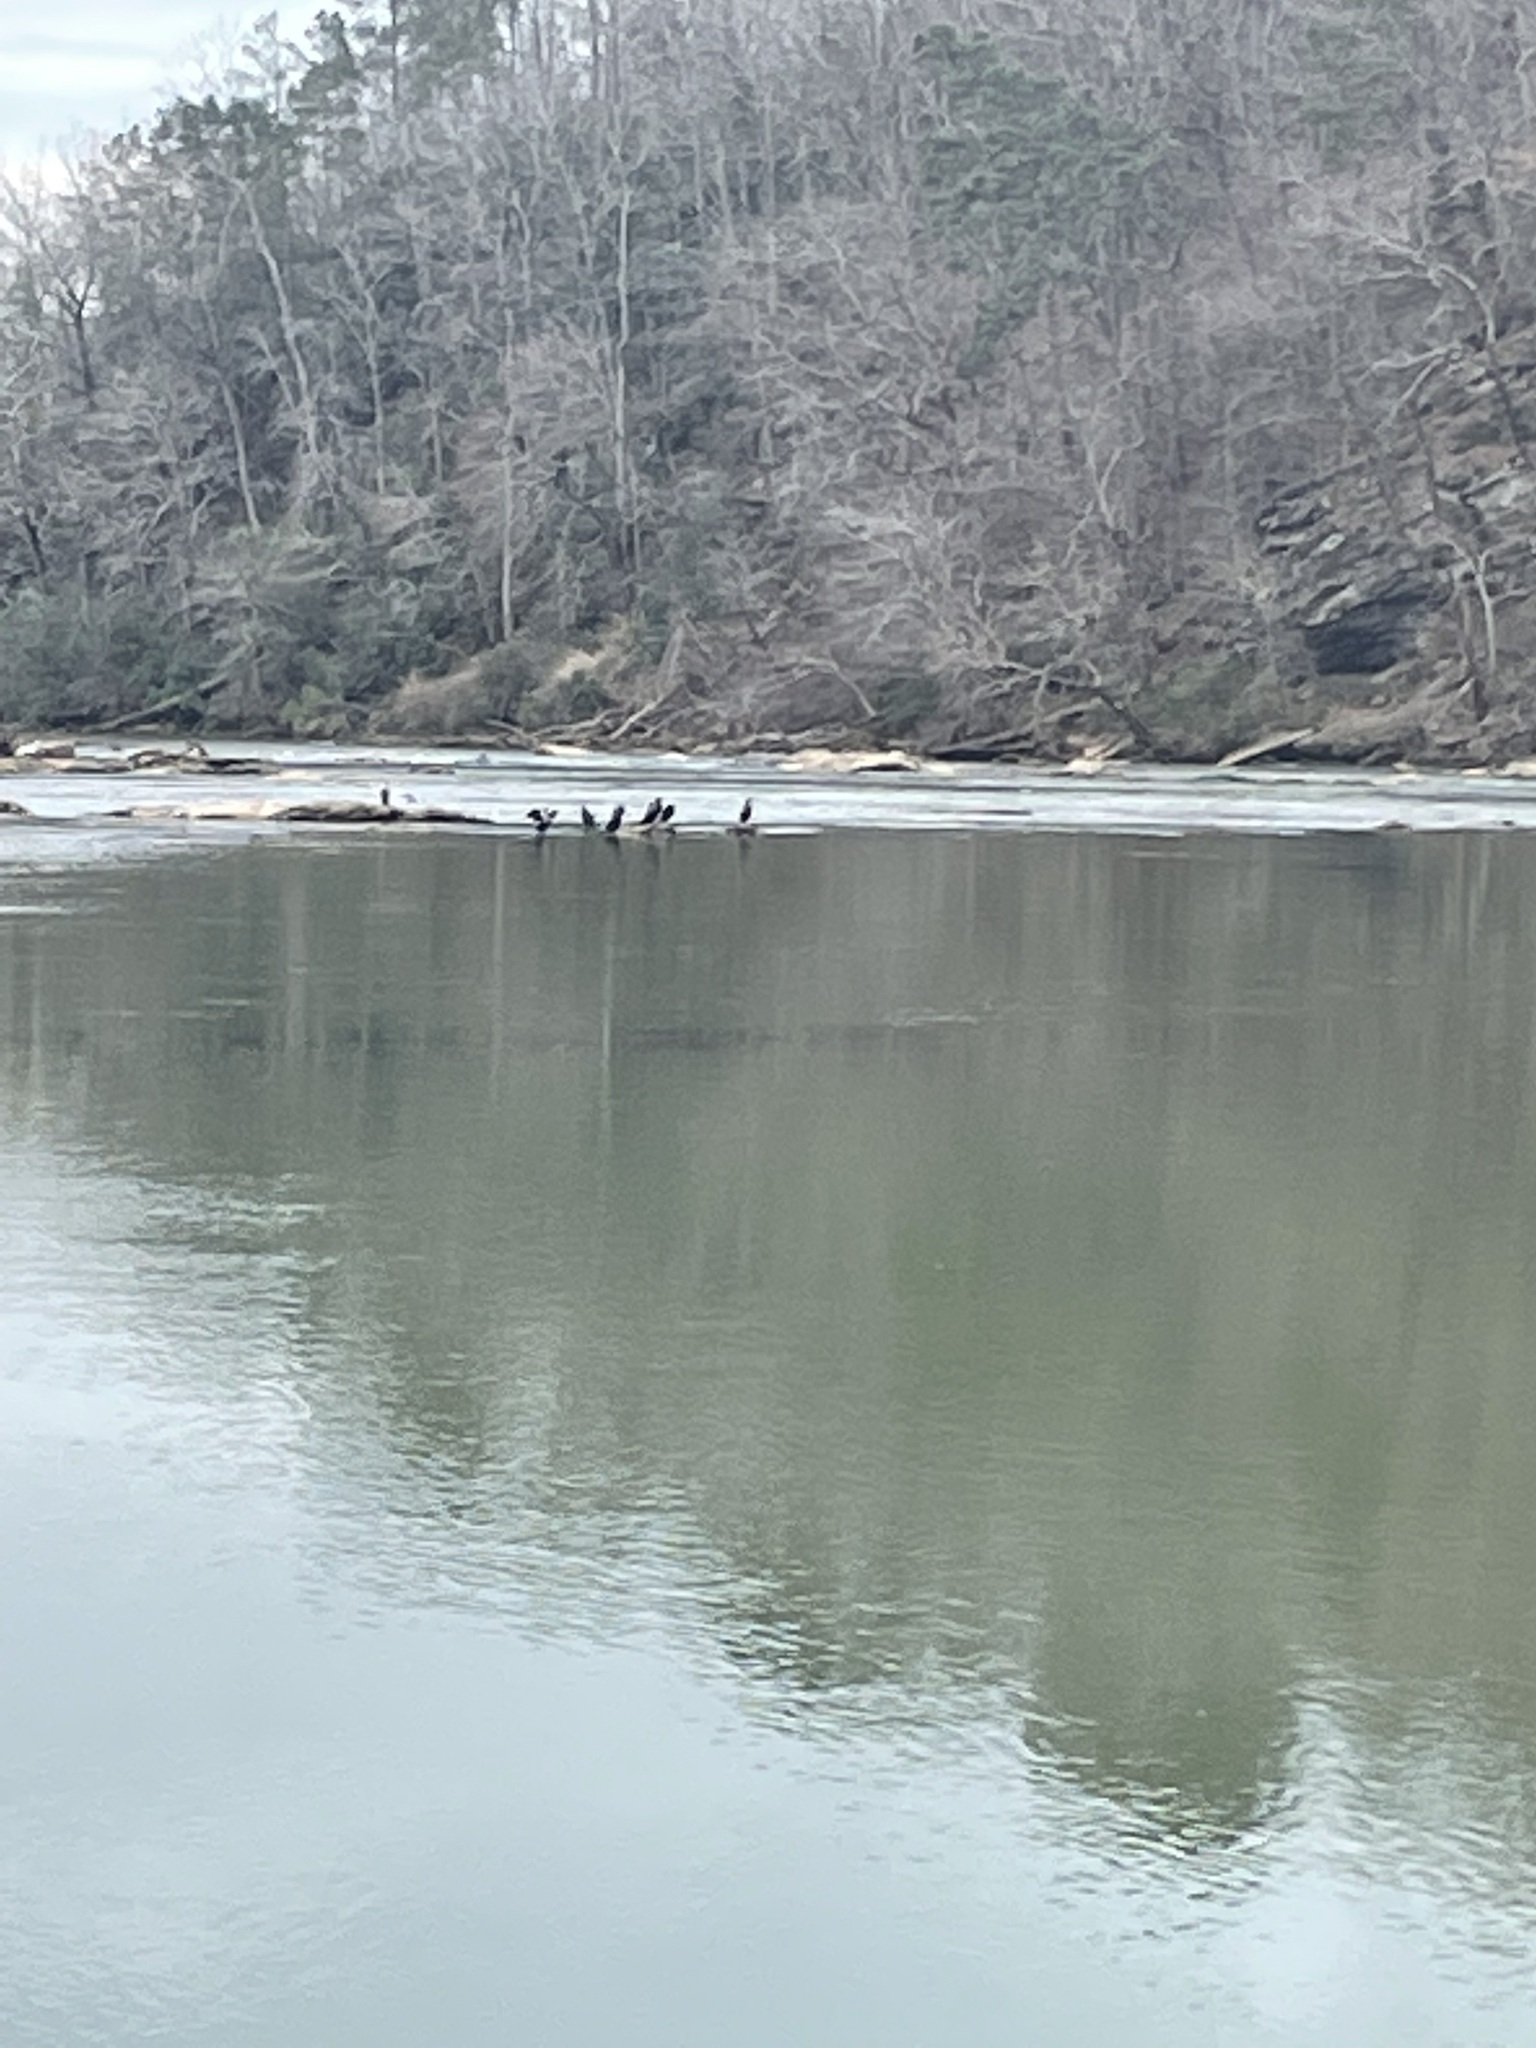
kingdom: Animalia
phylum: Chordata
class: Aves
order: Suliformes
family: Phalacrocoracidae
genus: Phalacrocorax
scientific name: Phalacrocorax auritus
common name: Double-crested cormorant
